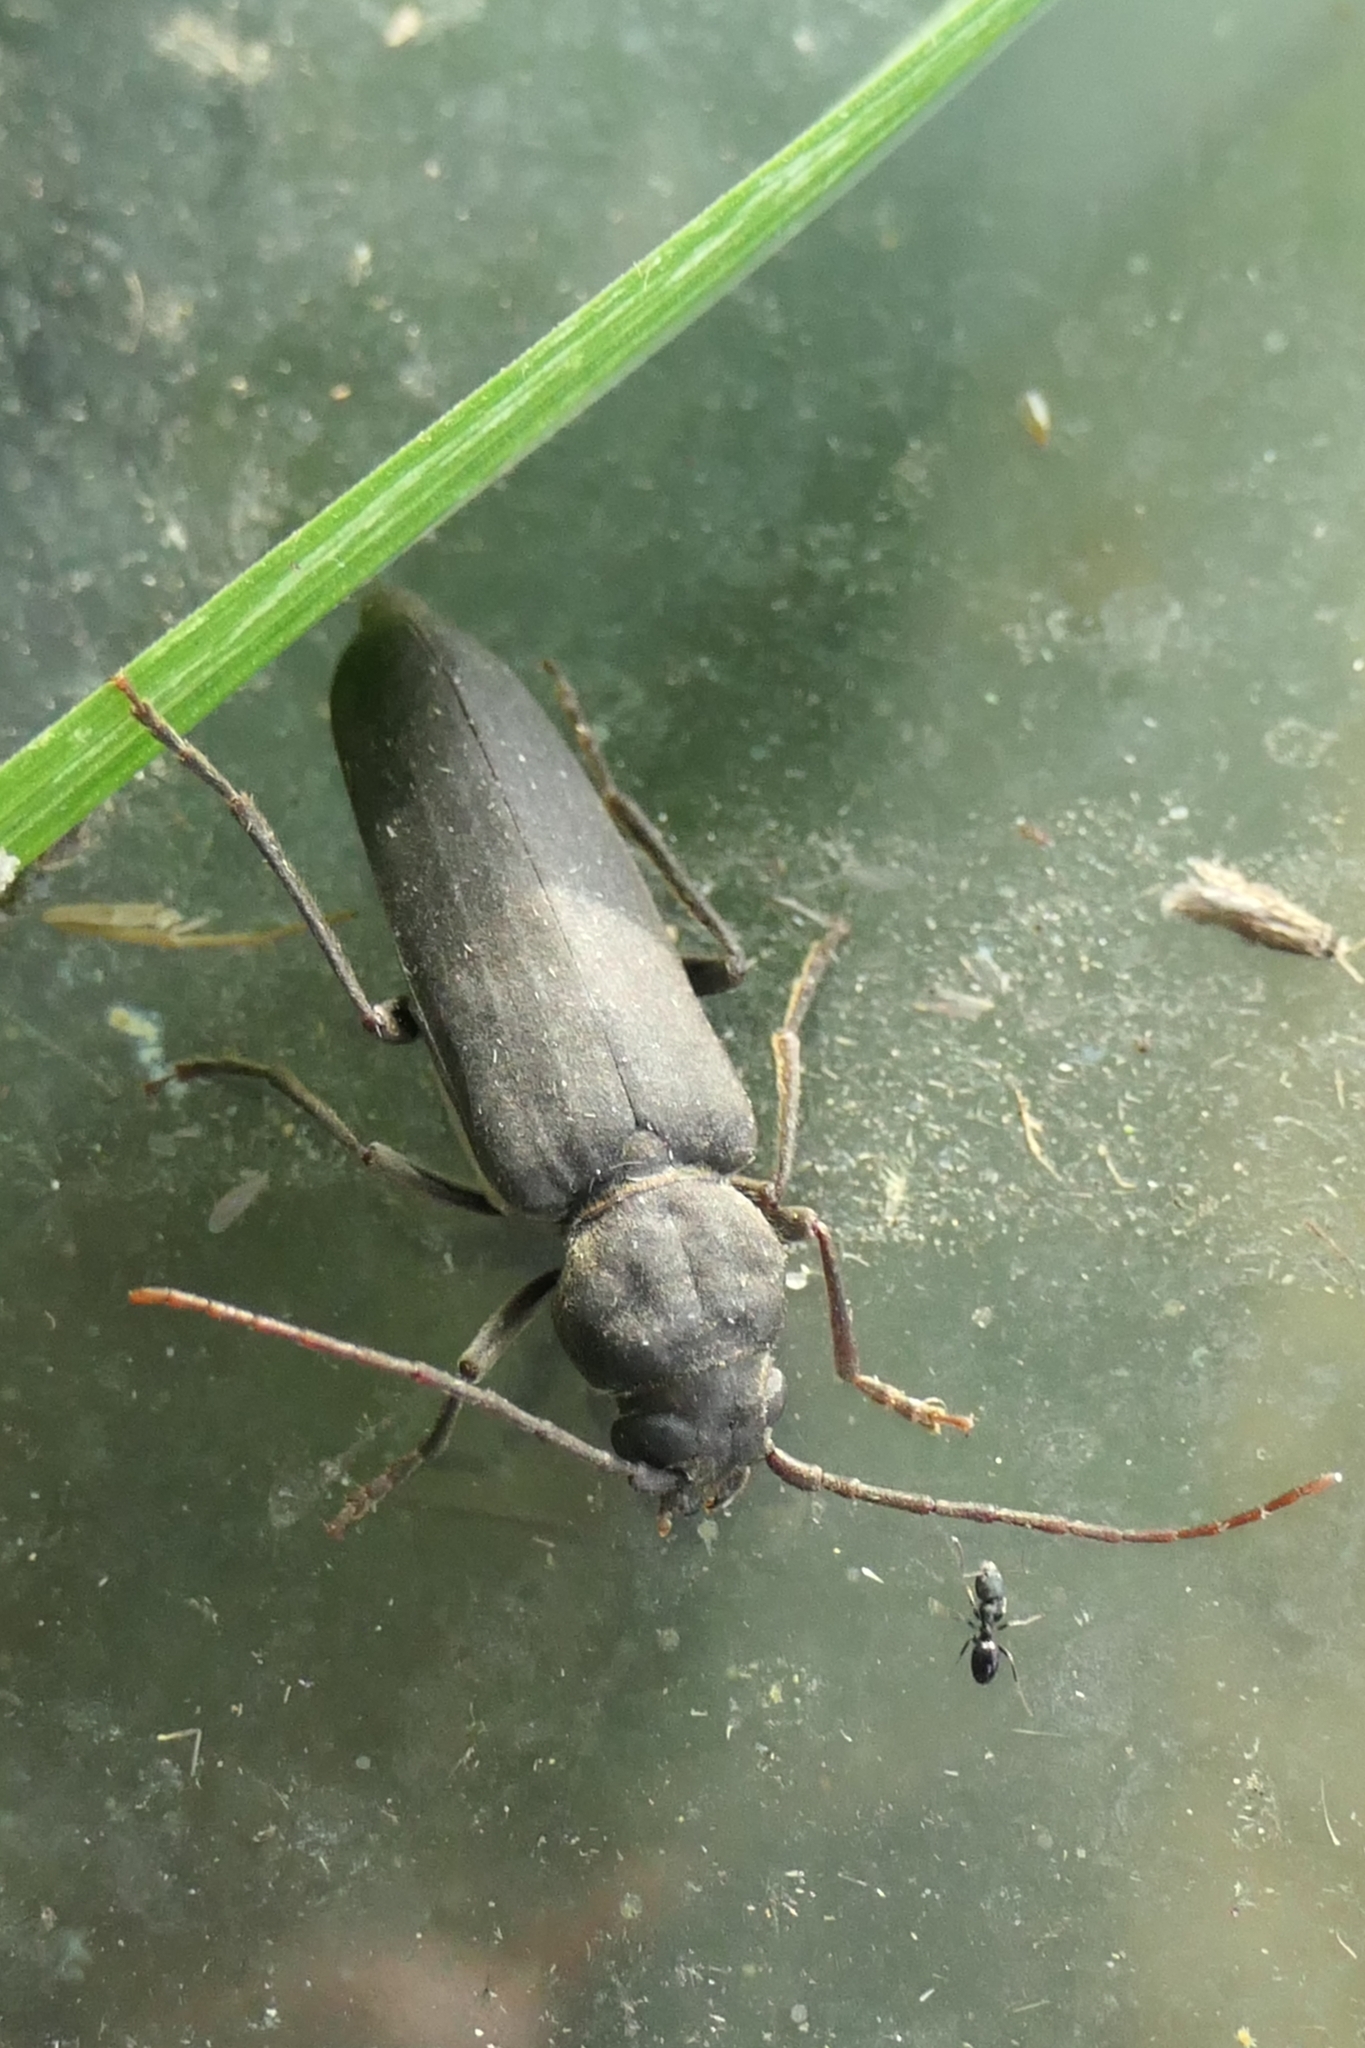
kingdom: Animalia
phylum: Arthropoda
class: Insecta
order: Coleoptera
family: Cerambycidae
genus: Arhopalus
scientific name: Arhopalus ferus
